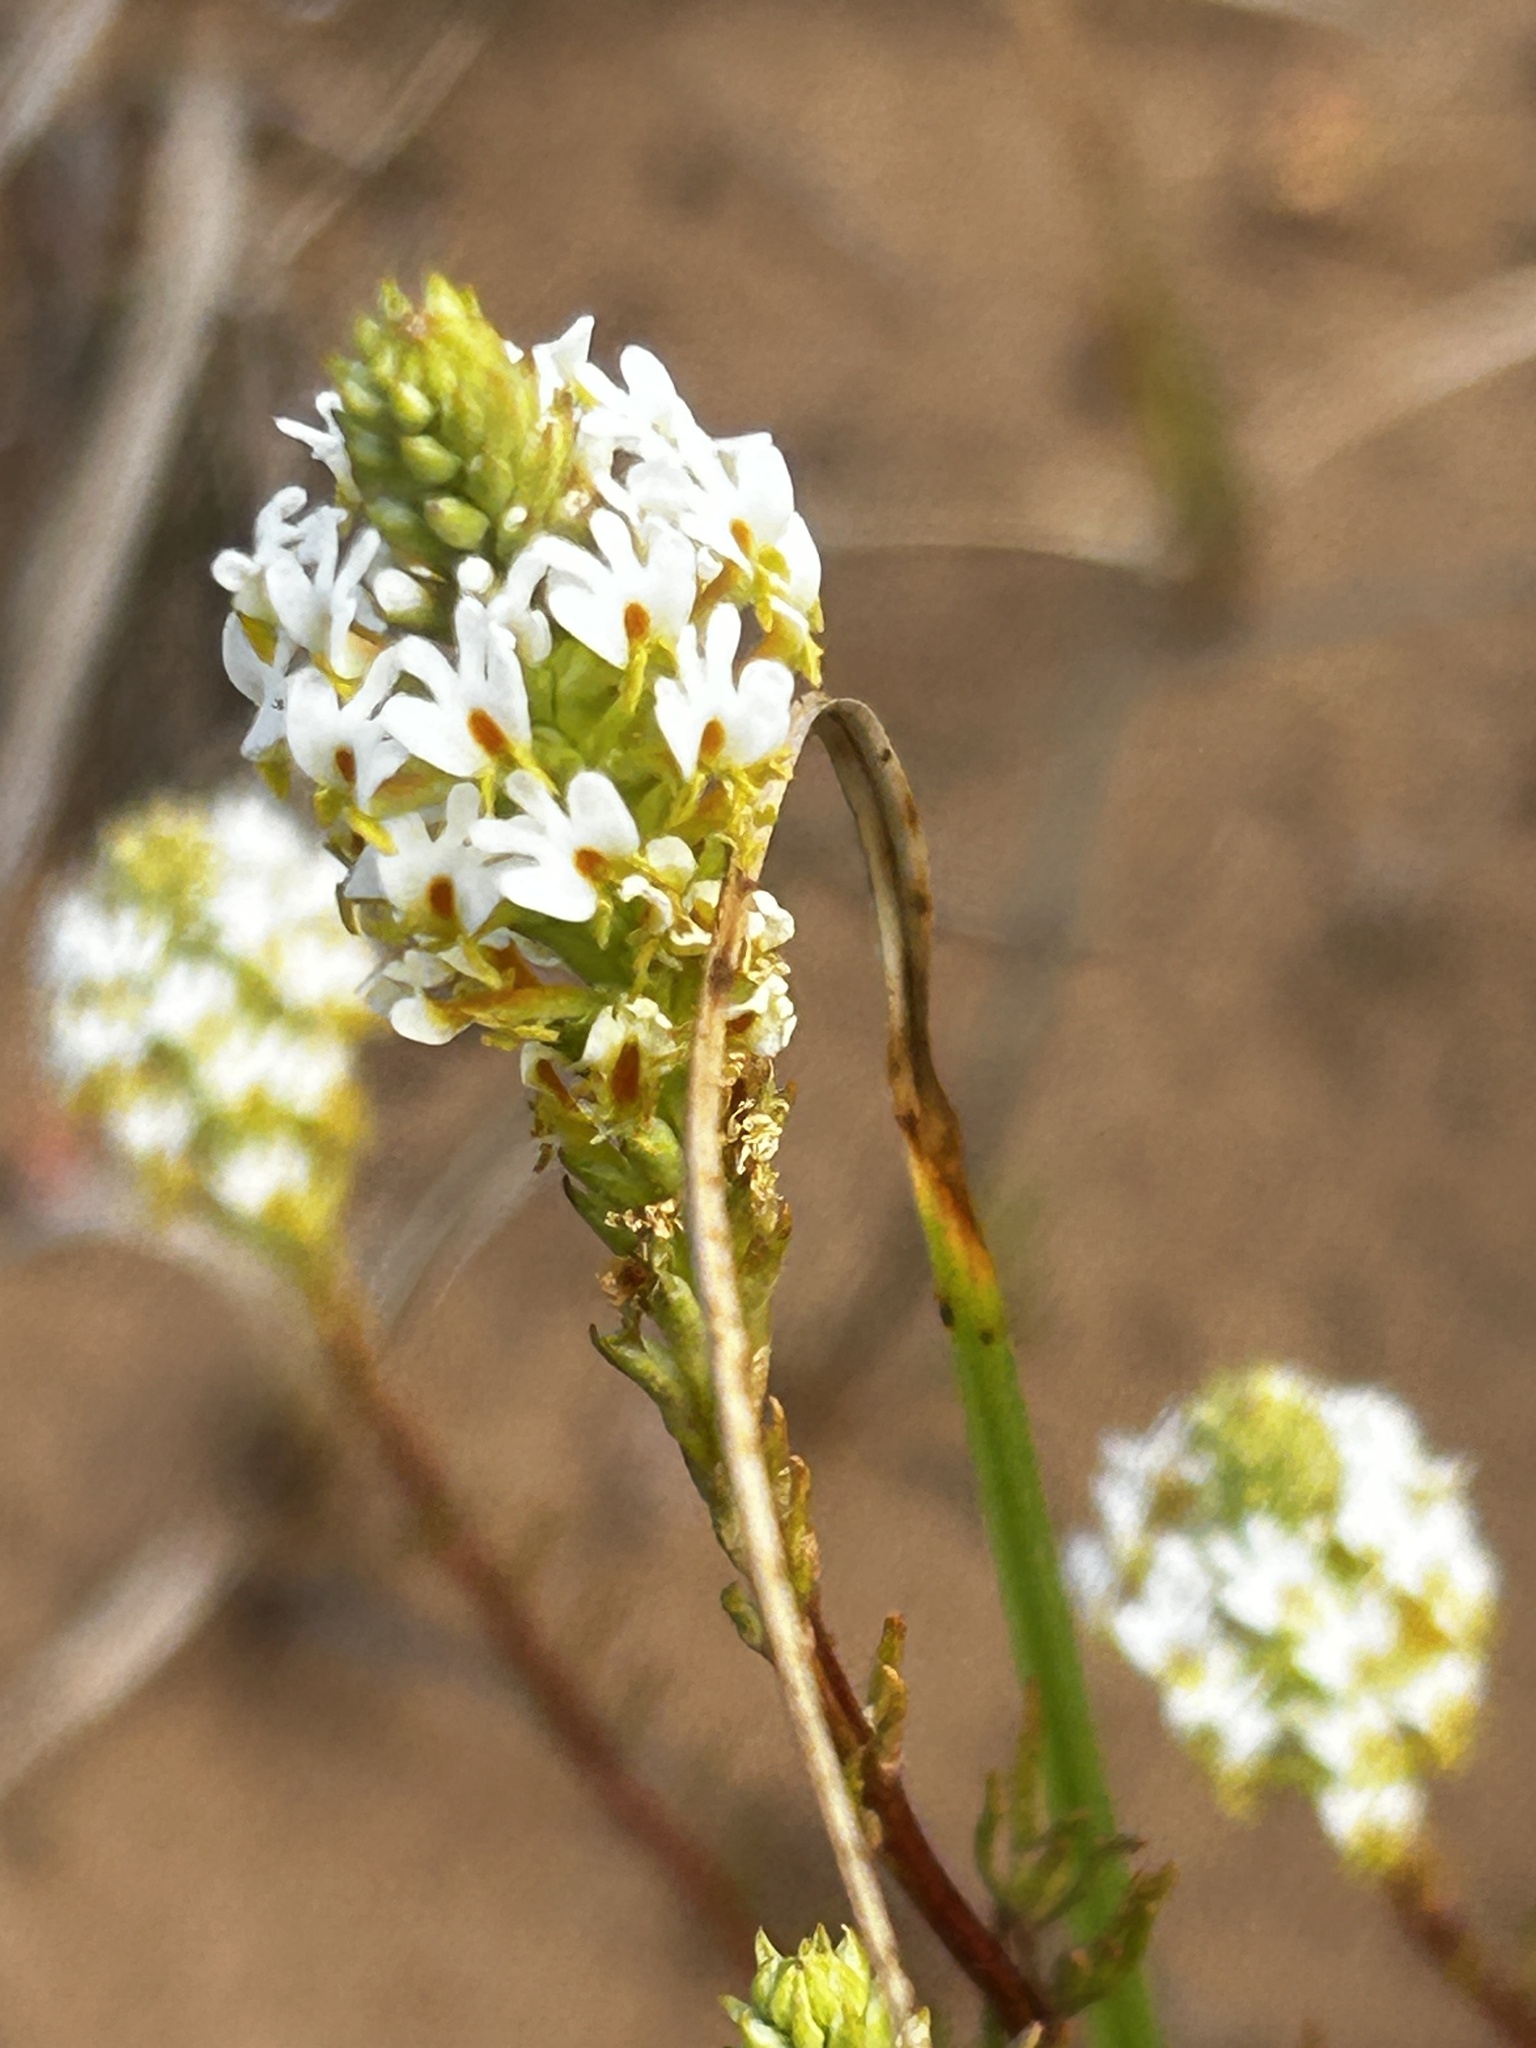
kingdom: Plantae
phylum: Tracheophyta
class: Magnoliopsida
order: Lamiales
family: Scrophulariaceae
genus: Hebenstretia
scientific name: Hebenstretia integrifolia
